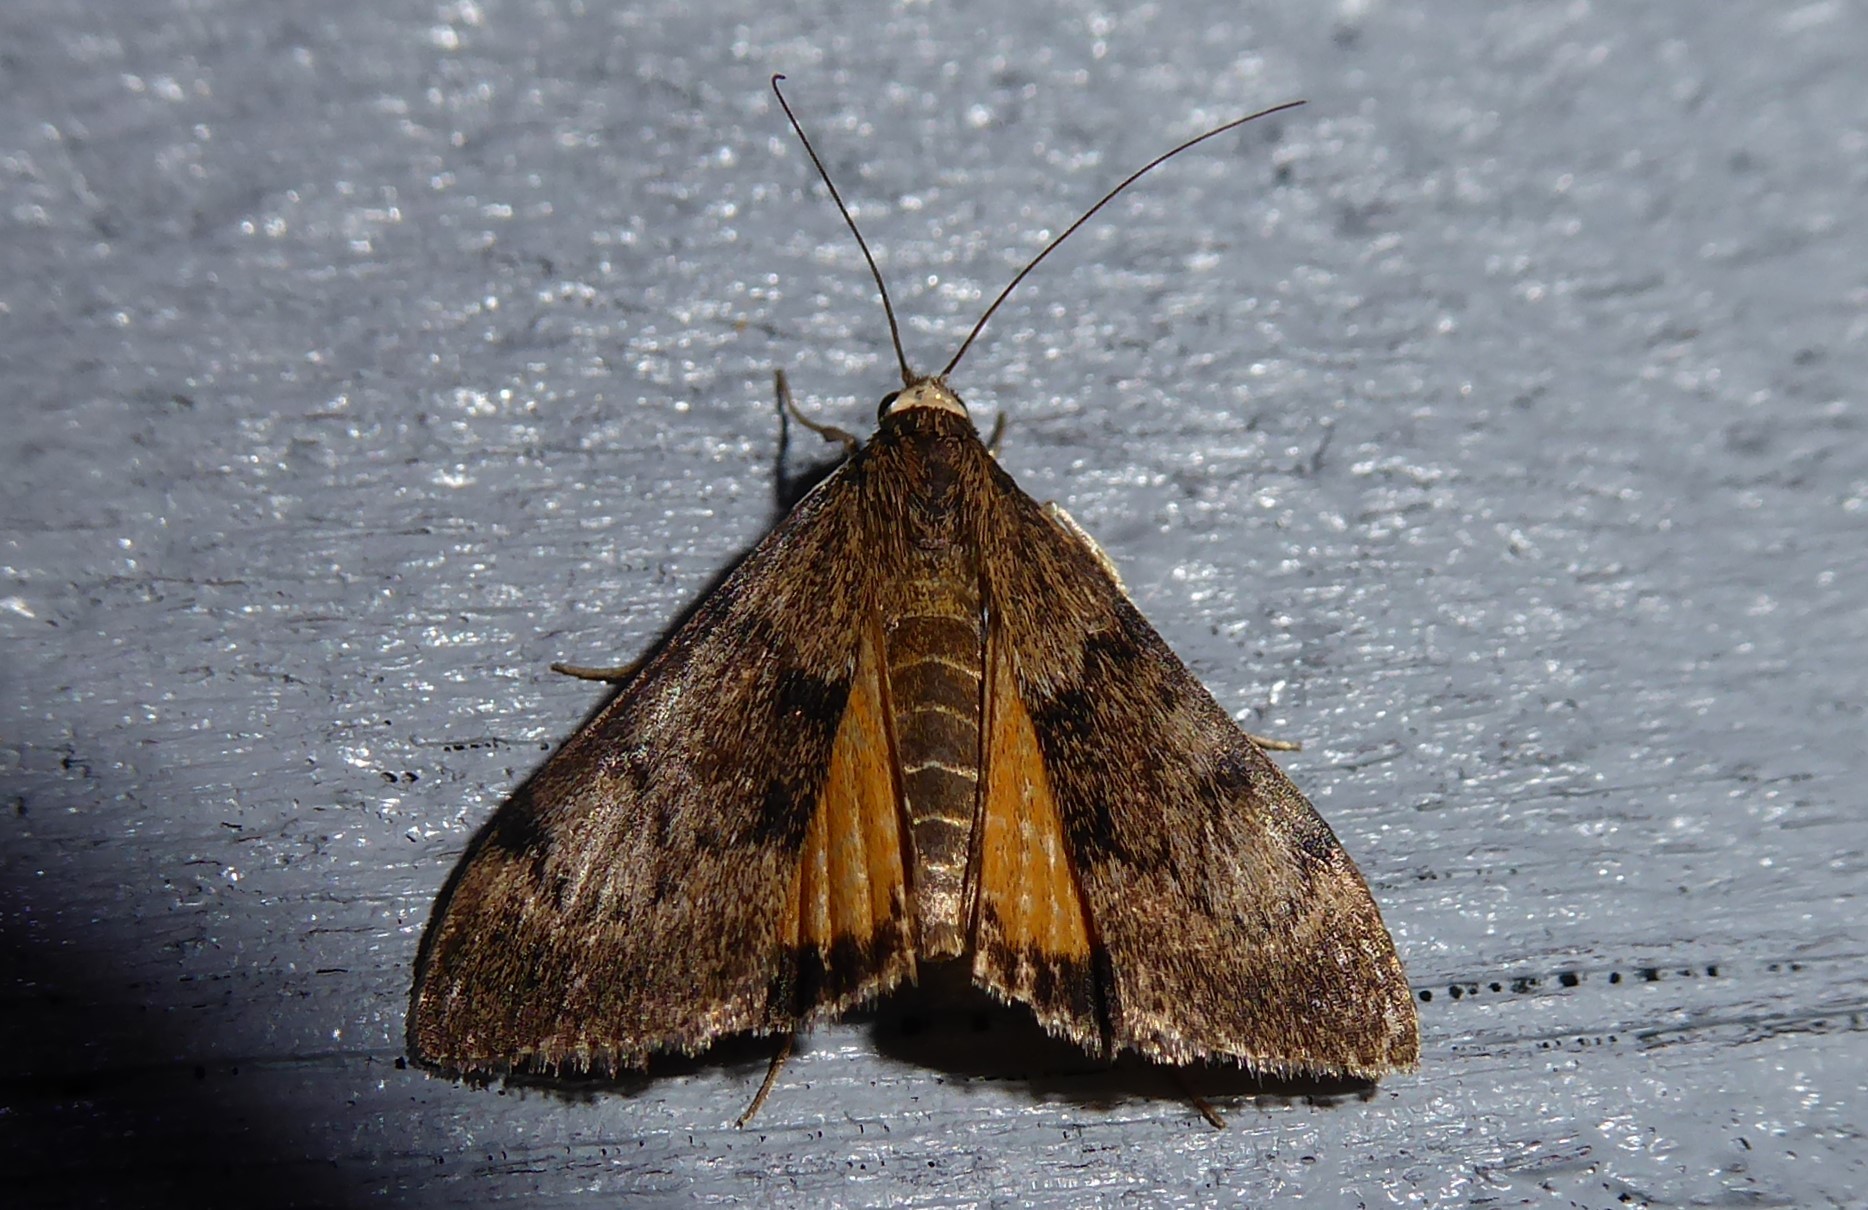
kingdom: Animalia
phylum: Arthropoda
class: Insecta
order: Lepidoptera
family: Crambidae
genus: Uresiphita
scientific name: Uresiphita
